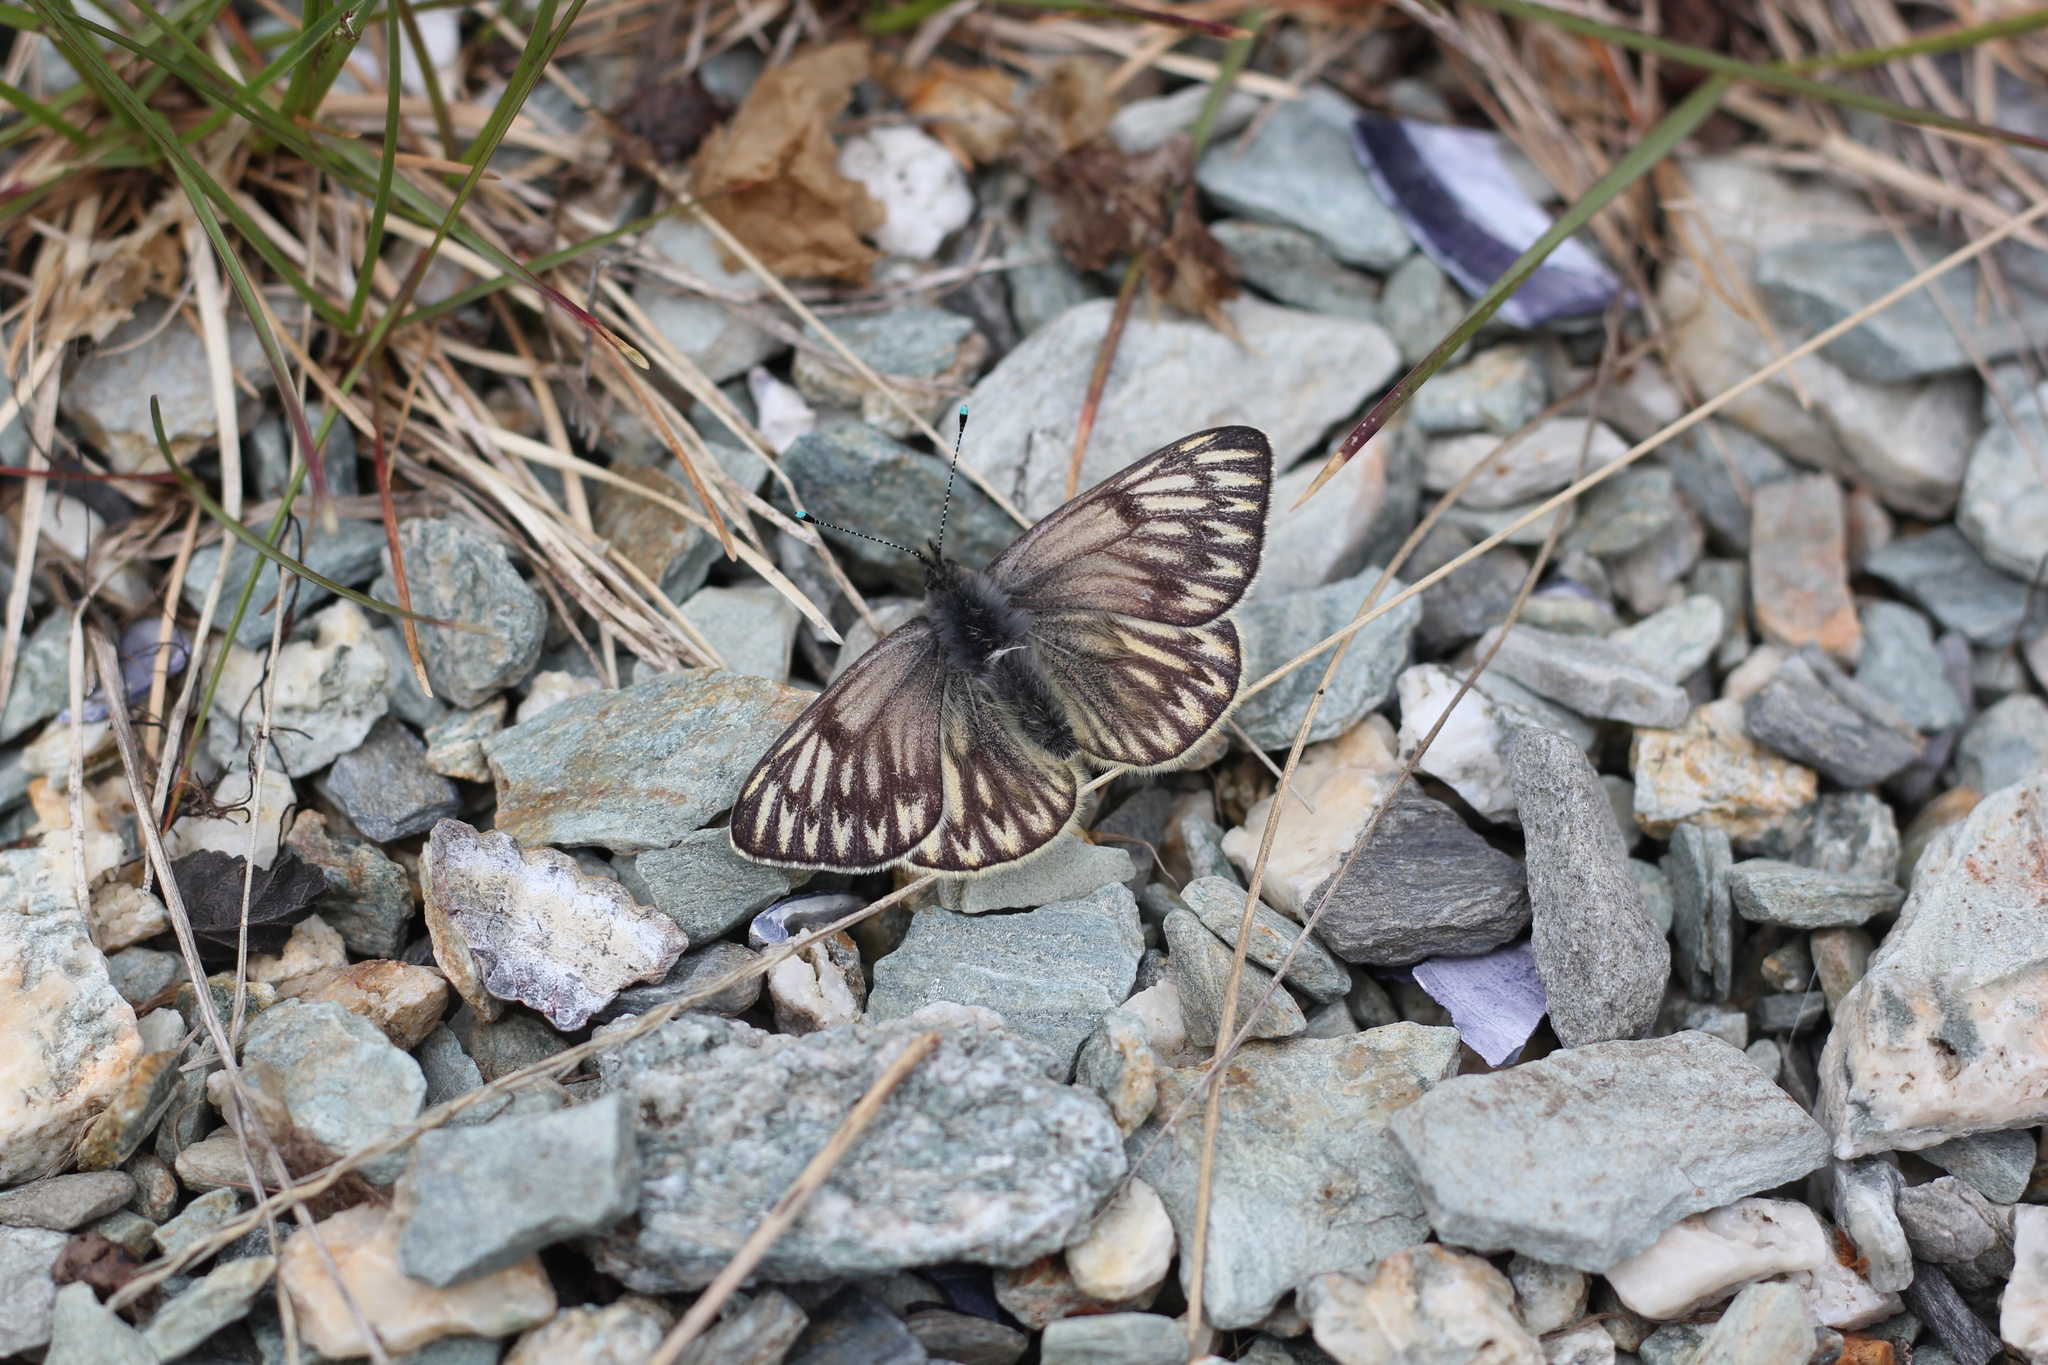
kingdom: Animalia
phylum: Arthropoda
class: Insecta
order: Lepidoptera
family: Pieridae
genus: Tatochila
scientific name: Tatochila theodice
